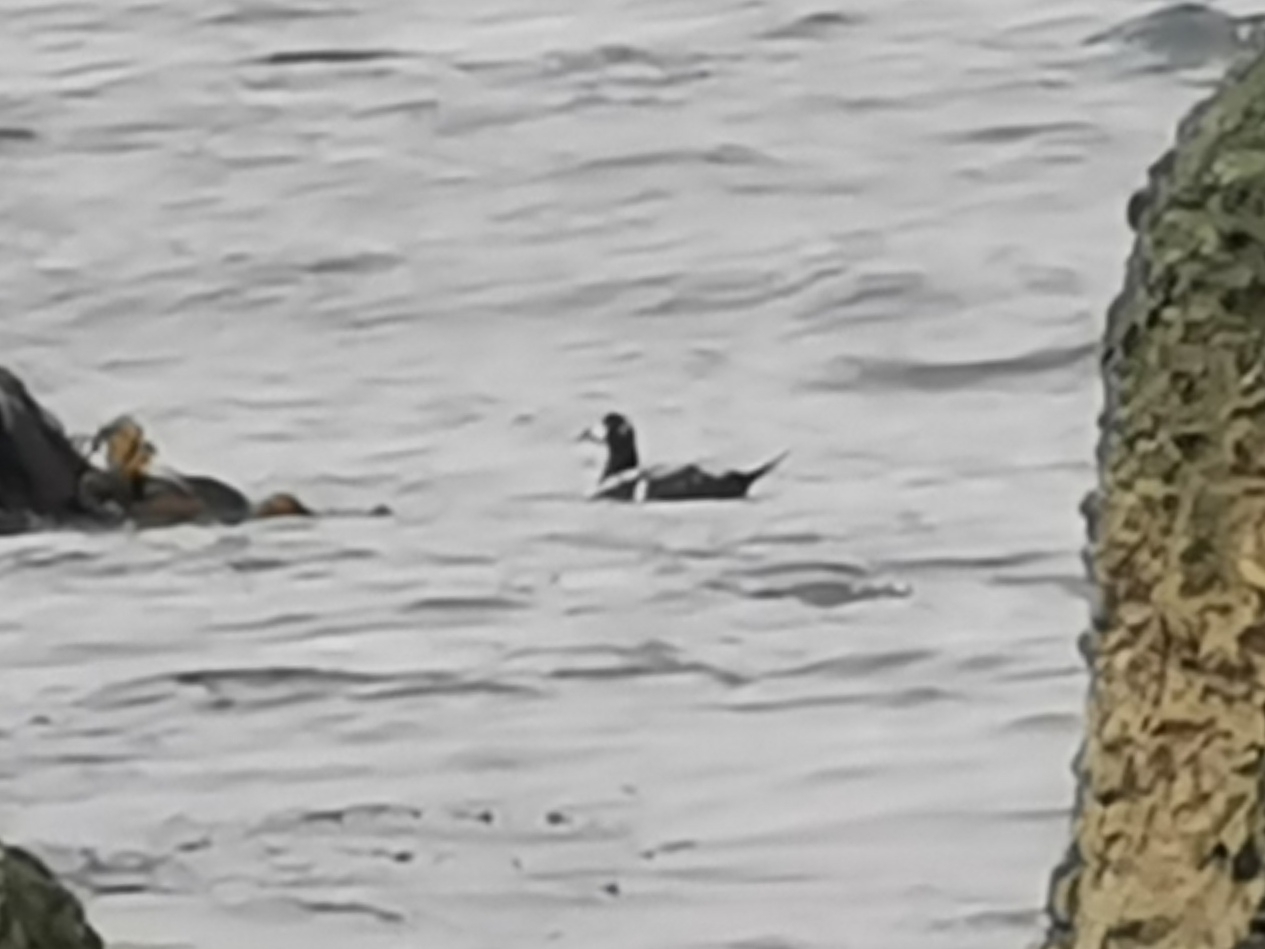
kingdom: Animalia
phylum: Chordata
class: Aves
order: Anseriformes
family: Anatidae
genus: Histrionicus
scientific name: Histrionicus histrionicus
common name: Harlequin duck
